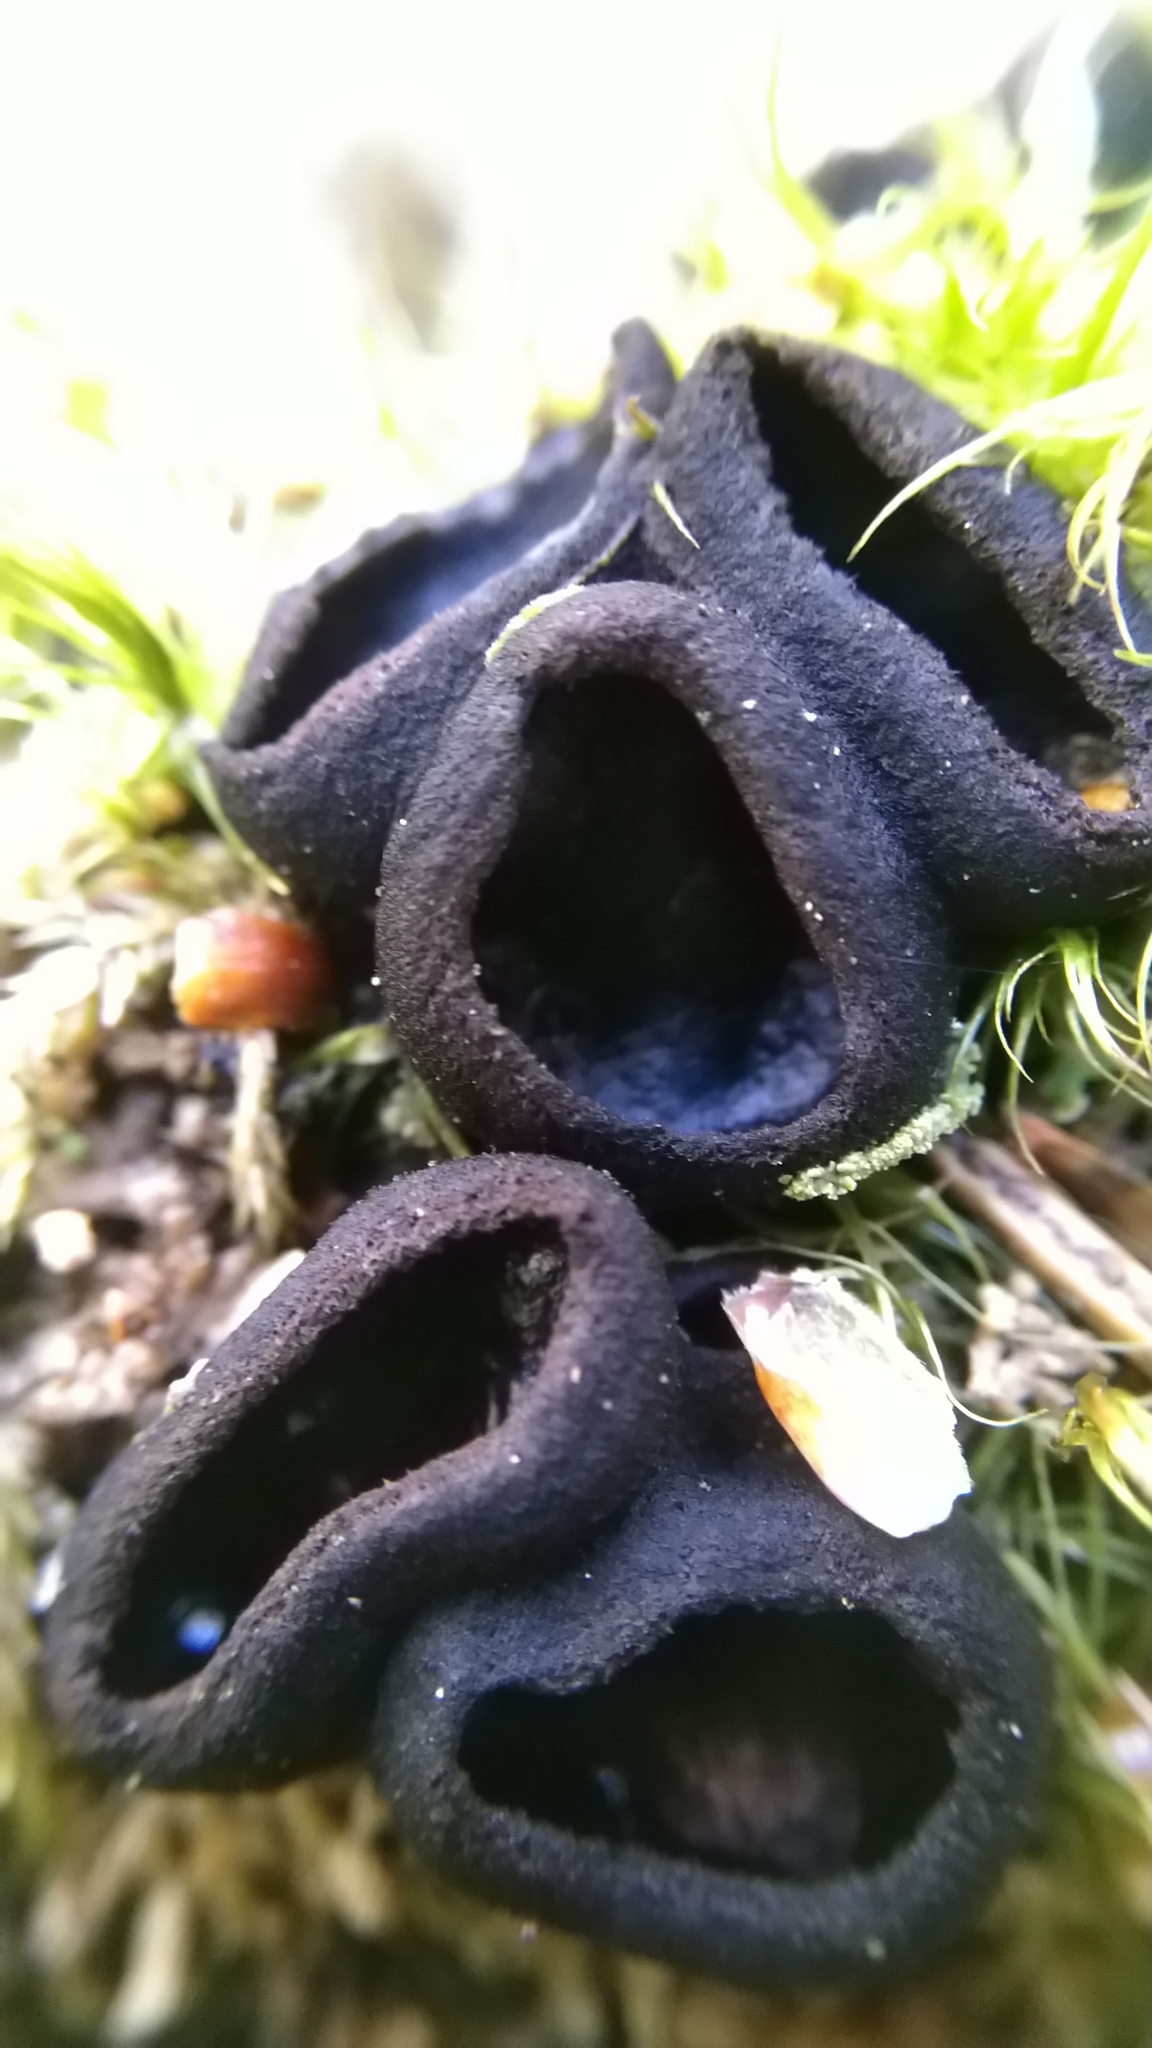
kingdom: Fungi
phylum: Ascomycota
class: Pezizomycetes
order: Pezizales
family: Sarcosomataceae
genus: Pseudoplectania
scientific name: Pseudoplectania nigrella
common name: Ebony cup
